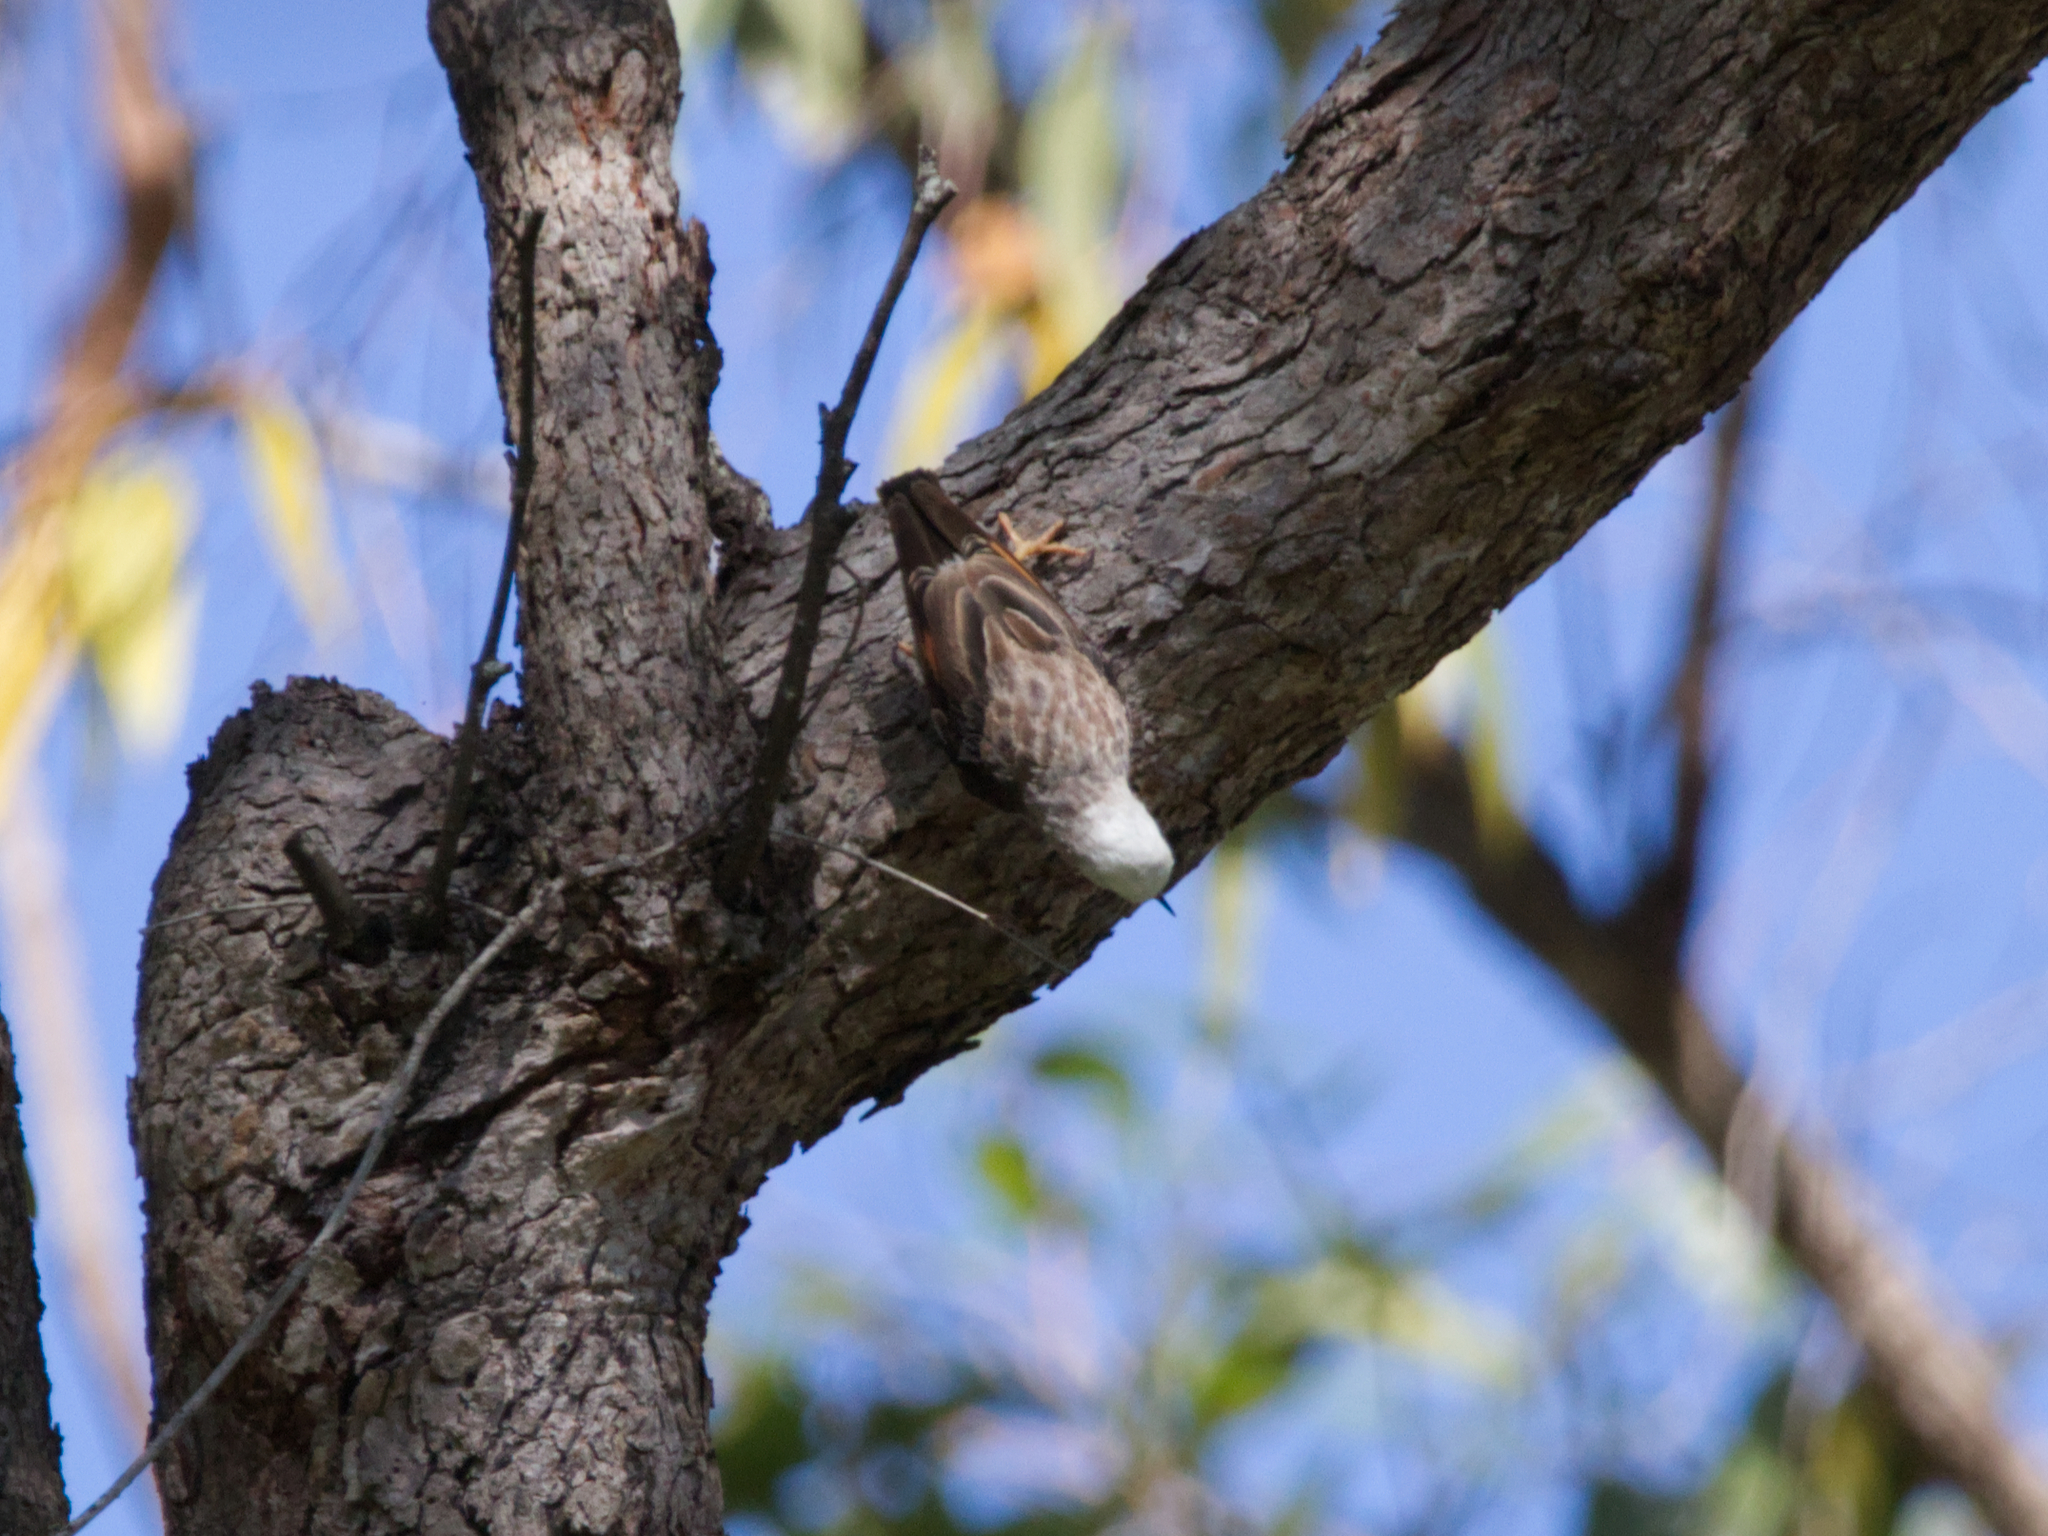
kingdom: Animalia
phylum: Chordata
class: Aves
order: Passeriformes
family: Neosittidae
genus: Daphoenositta
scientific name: Daphoenositta chrysoptera
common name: Varied sittella
